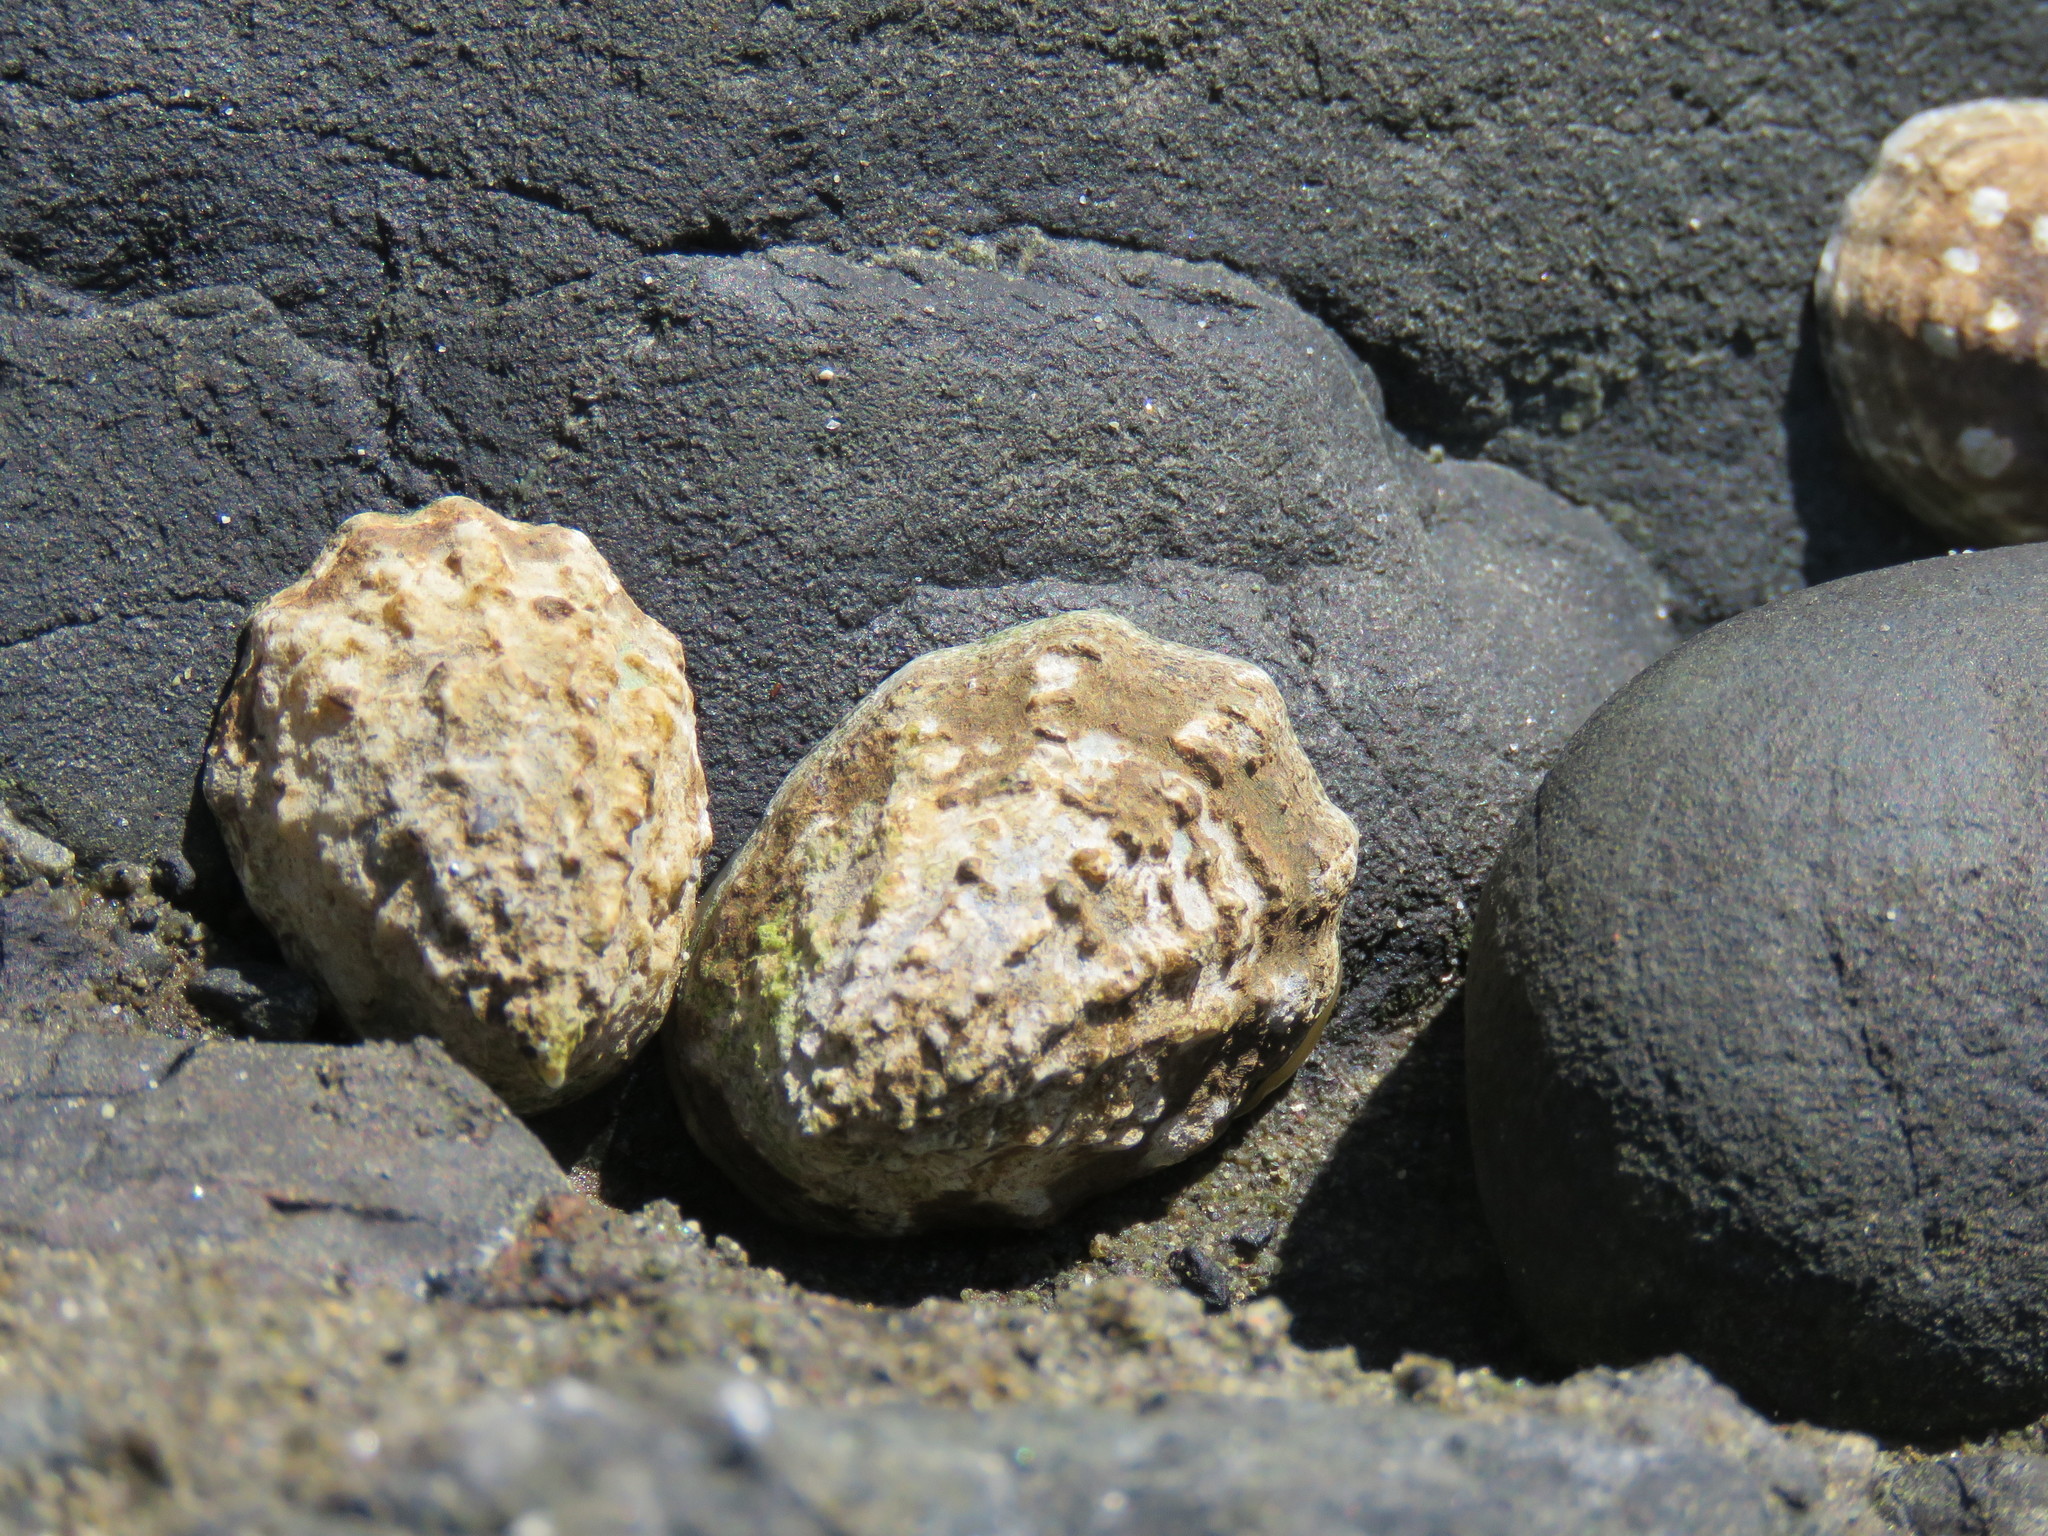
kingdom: Animalia
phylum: Mollusca
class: Gastropoda
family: Lottiidae
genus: Lottia
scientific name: Lottia digitalis
